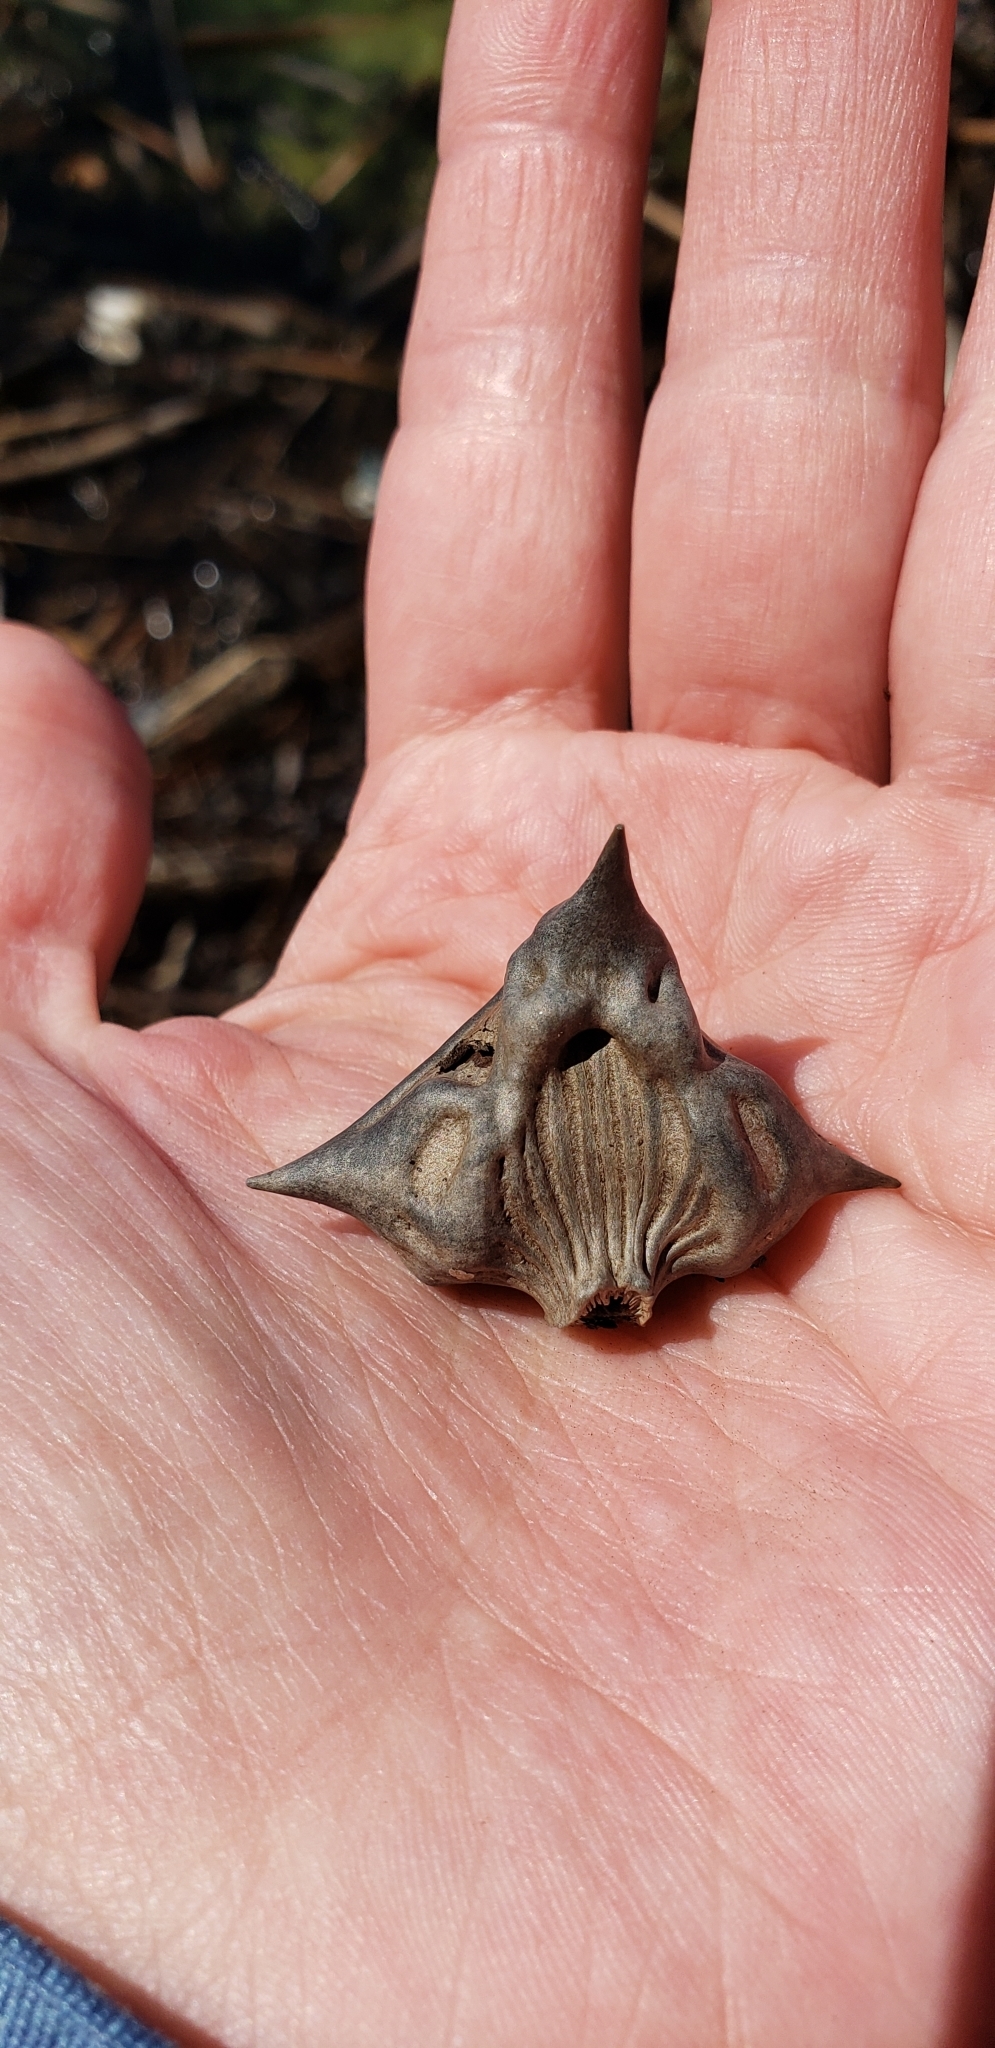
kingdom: Plantae
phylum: Tracheophyta
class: Magnoliopsida
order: Myrtales
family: Lythraceae
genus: Trapa
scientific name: Trapa natans
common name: Water chestnut
